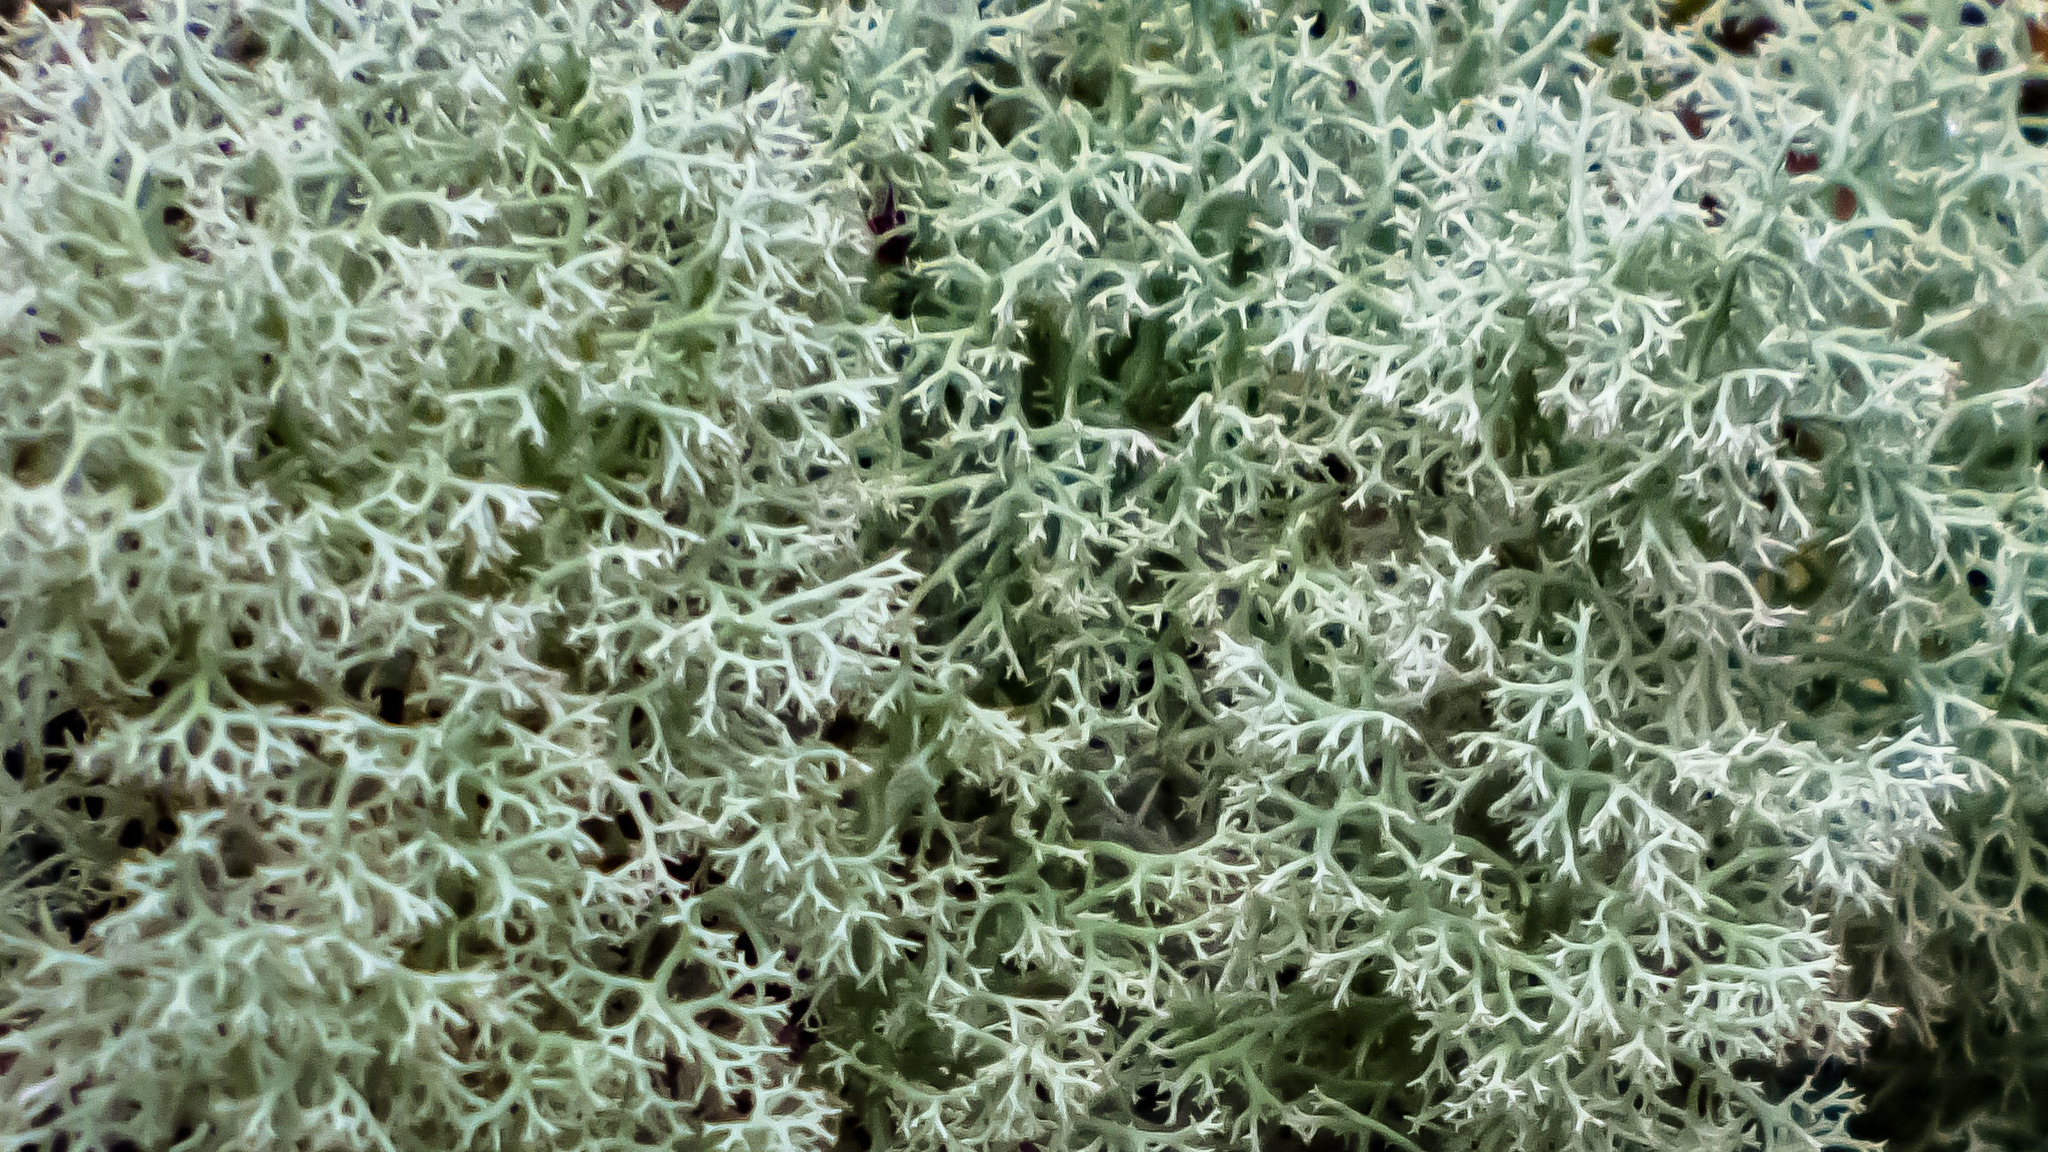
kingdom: Fungi
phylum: Ascomycota
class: Lecanoromycetes
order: Lecanorales
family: Cladoniaceae
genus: Cladonia
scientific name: Cladonia subtenuis
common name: Dixie reindeer lichen
